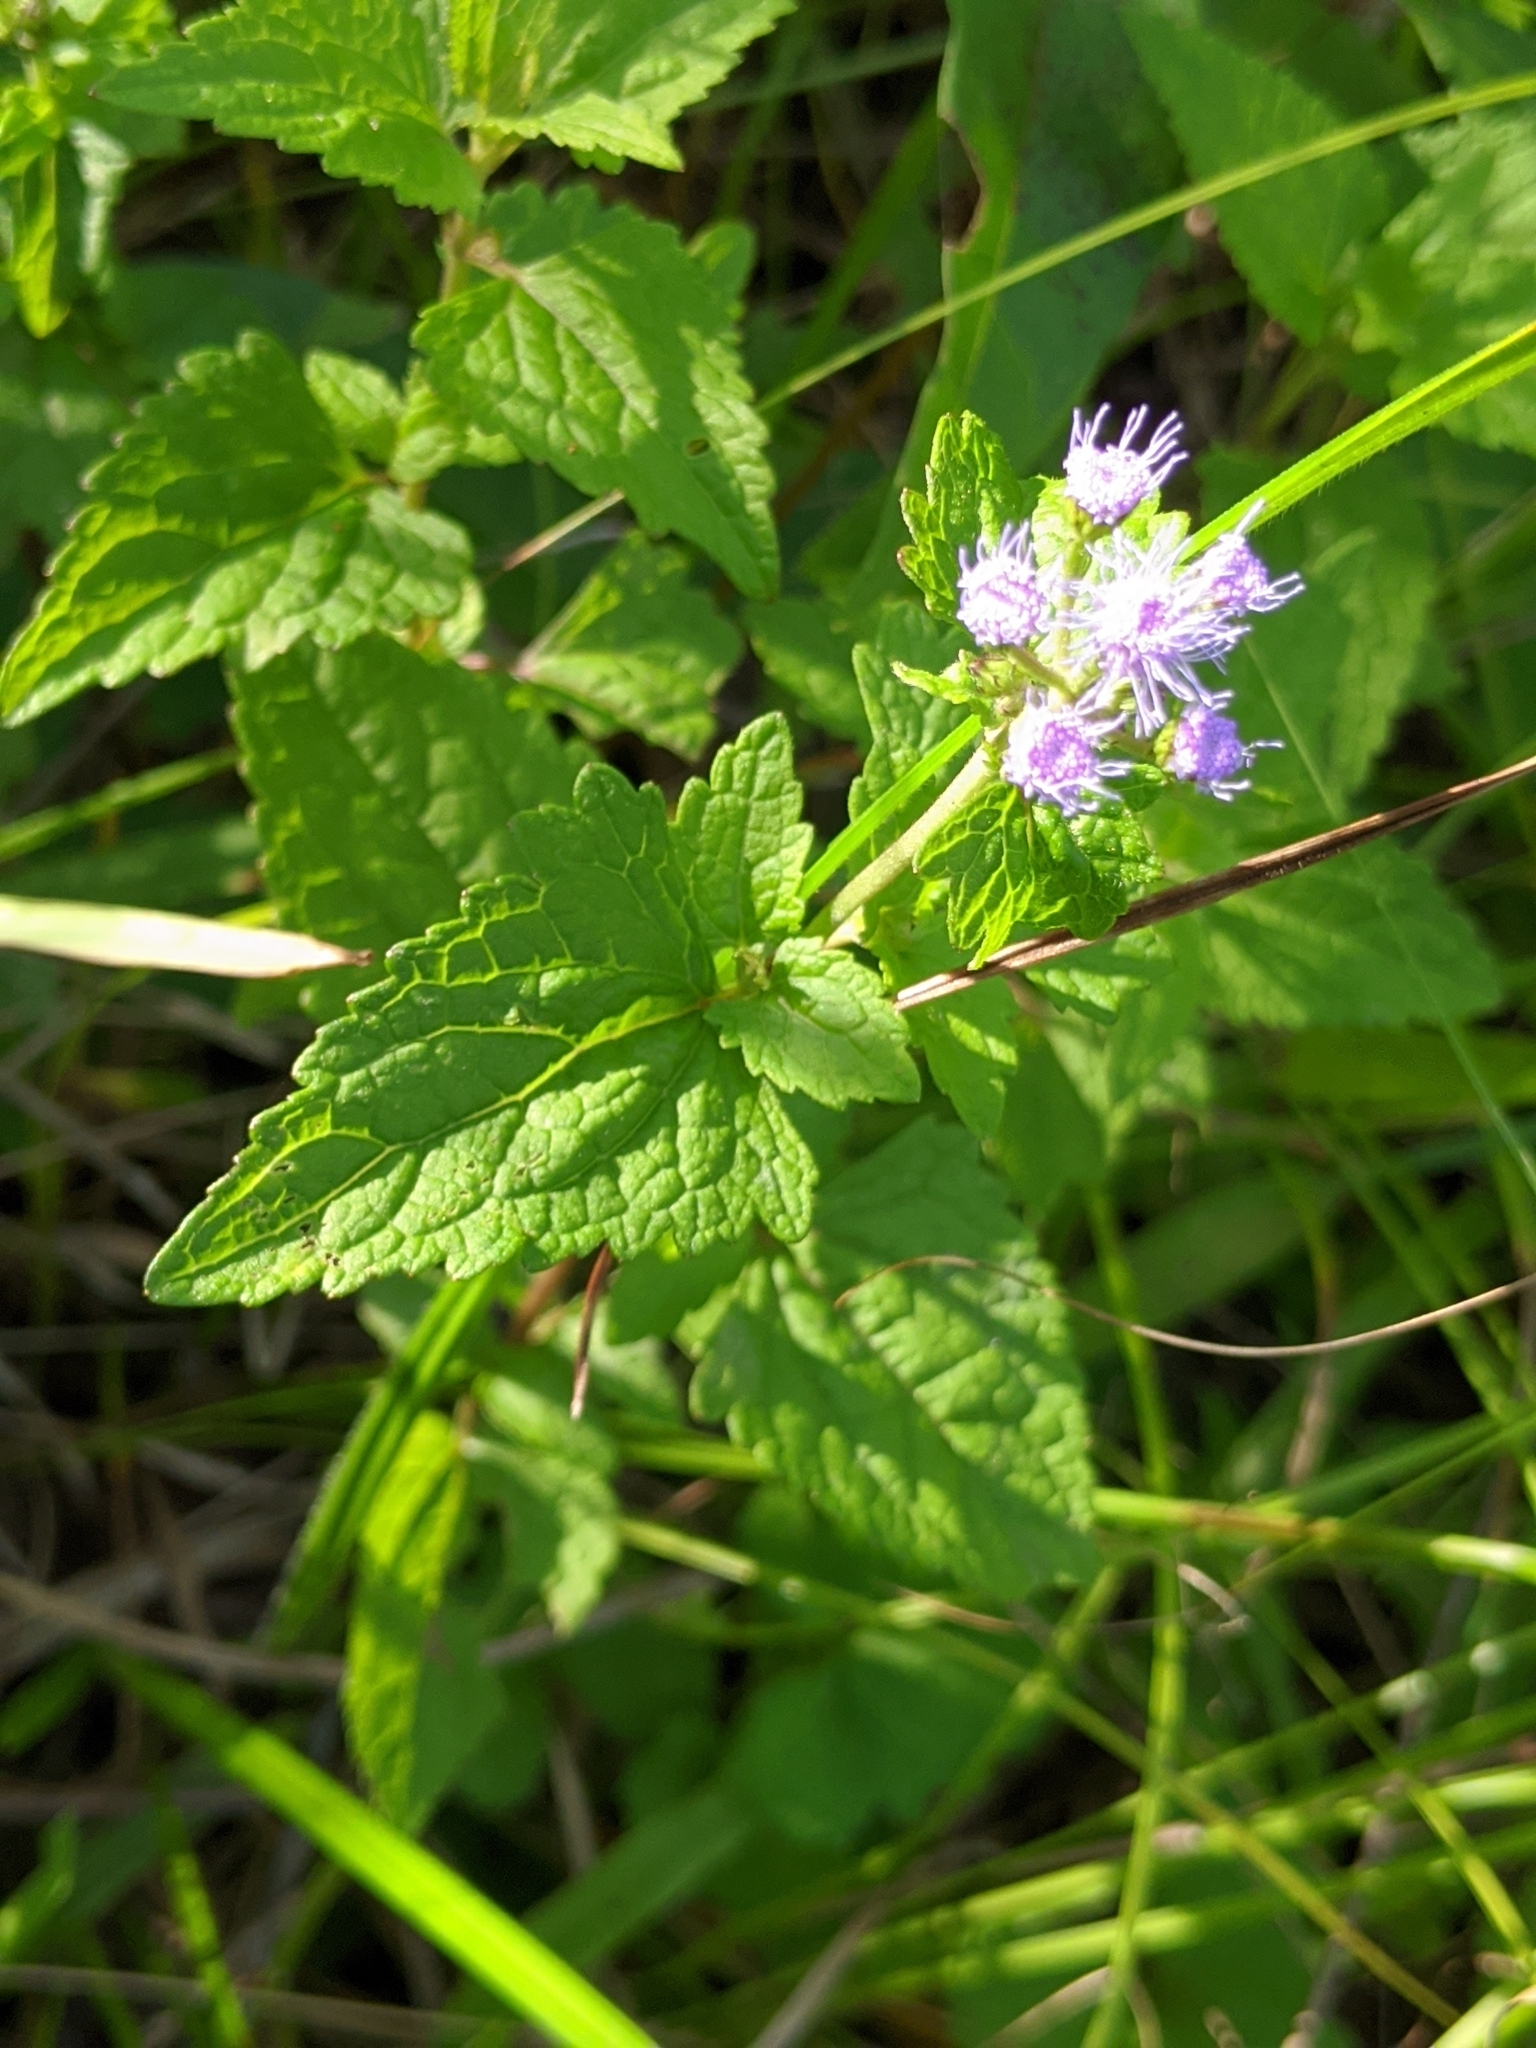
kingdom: Plantae
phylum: Tracheophyta
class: Magnoliopsida
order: Asterales
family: Asteraceae
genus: Conoclinium
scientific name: Conoclinium coelestinum
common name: Blue mistflower
